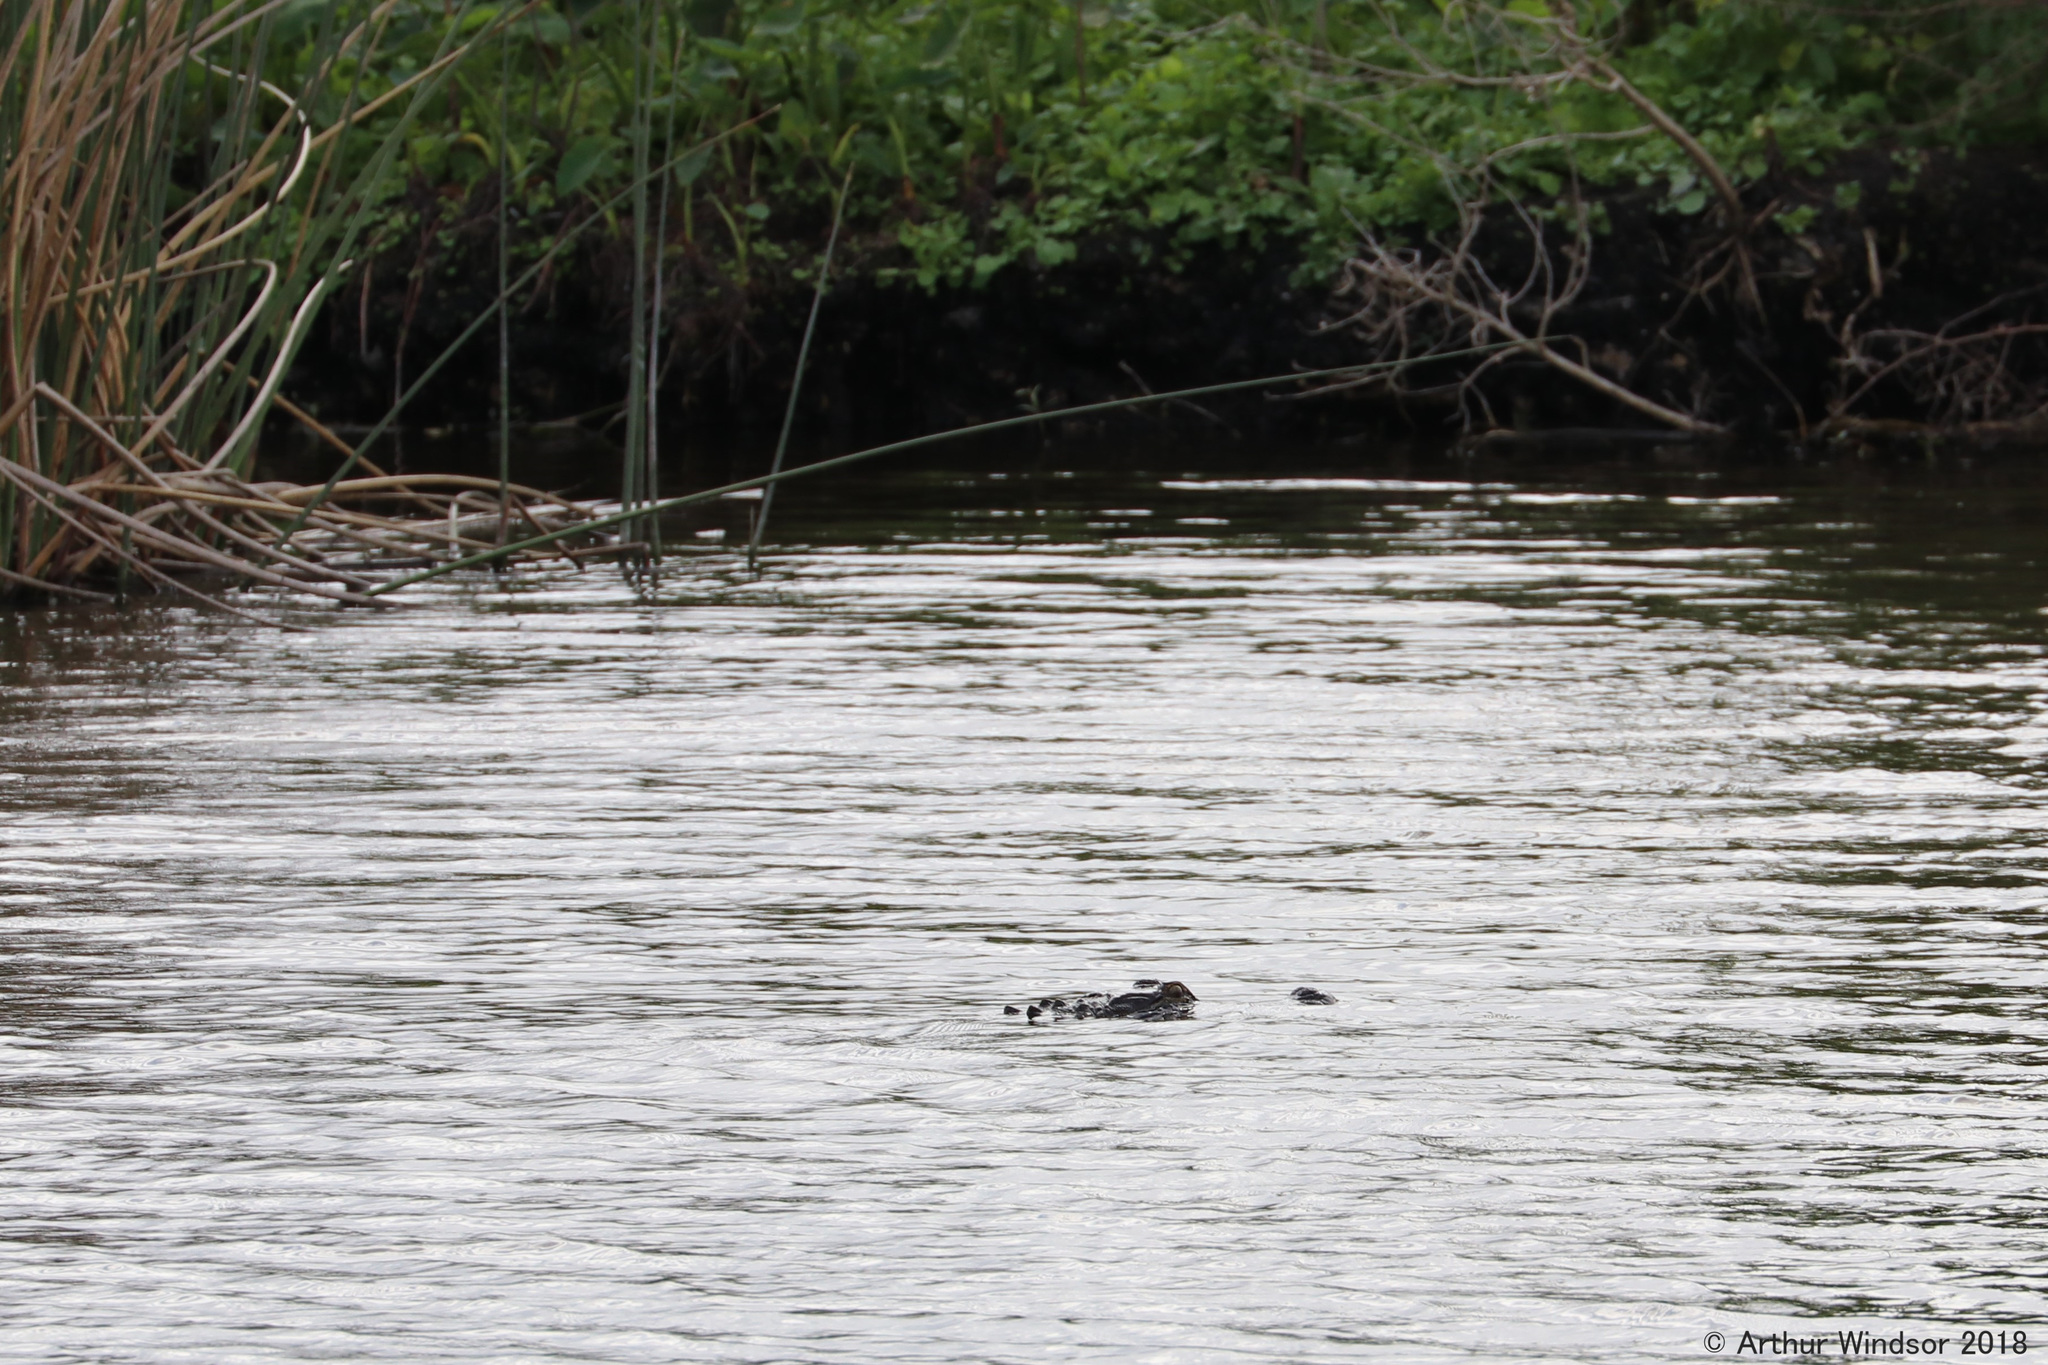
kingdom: Animalia
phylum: Chordata
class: Crocodylia
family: Alligatoridae
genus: Alligator
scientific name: Alligator mississippiensis
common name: American alligator
